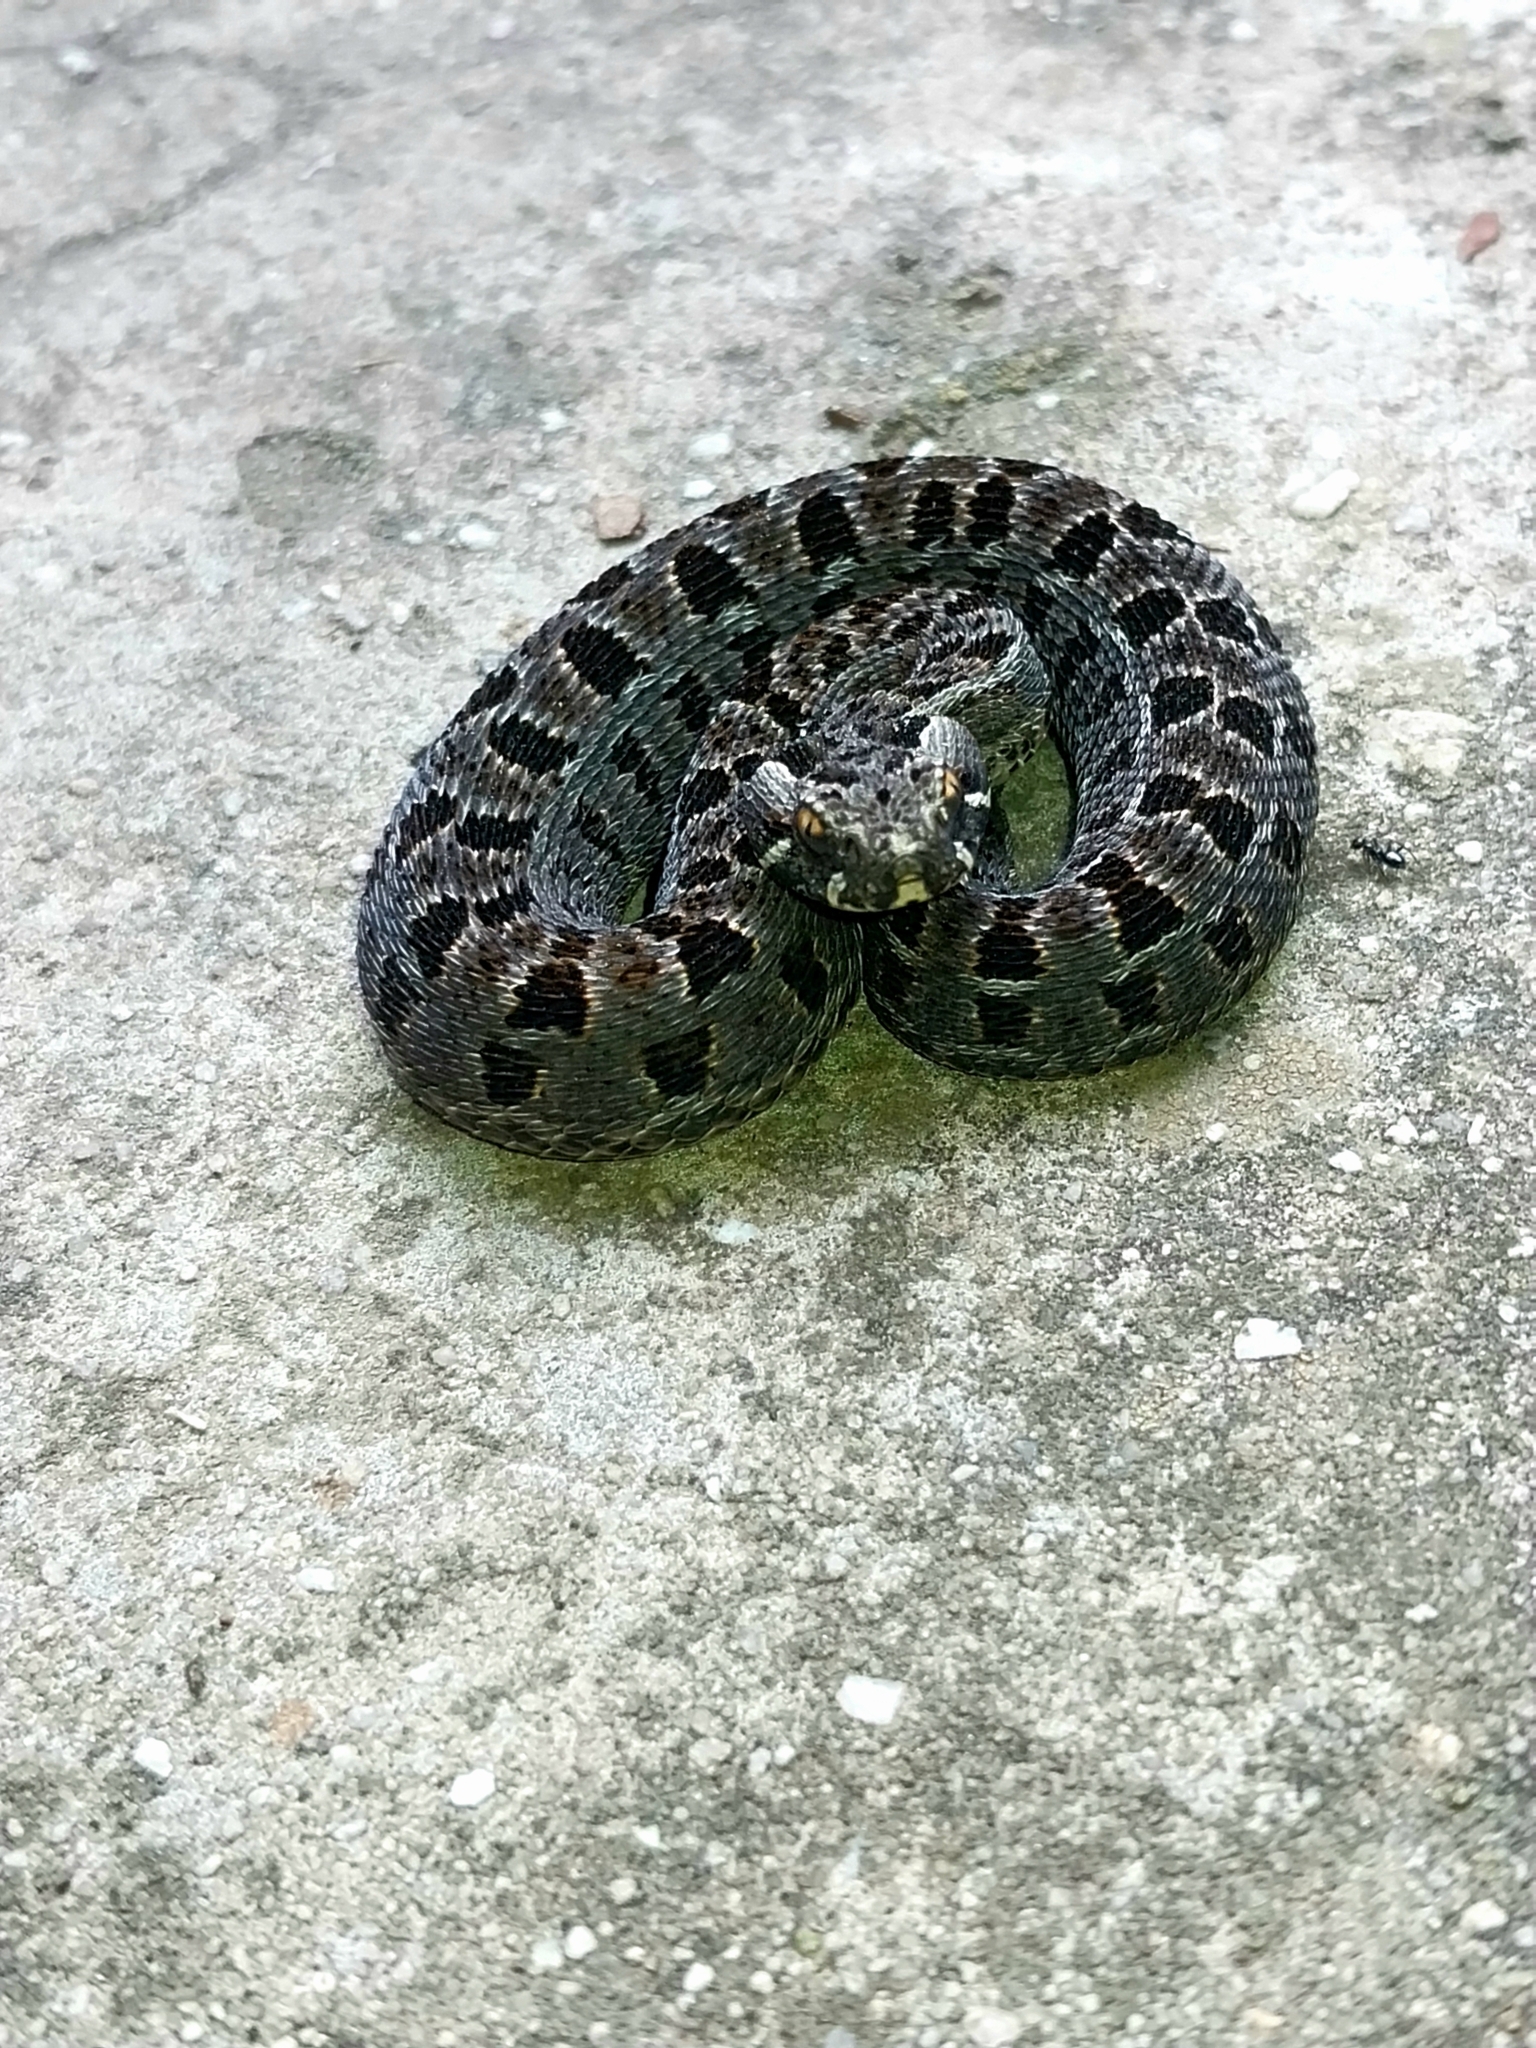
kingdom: Animalia
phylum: Chordata
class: Squamata
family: Viperidae
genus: Bitis
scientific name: Bitis atropos
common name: Mountain adder
